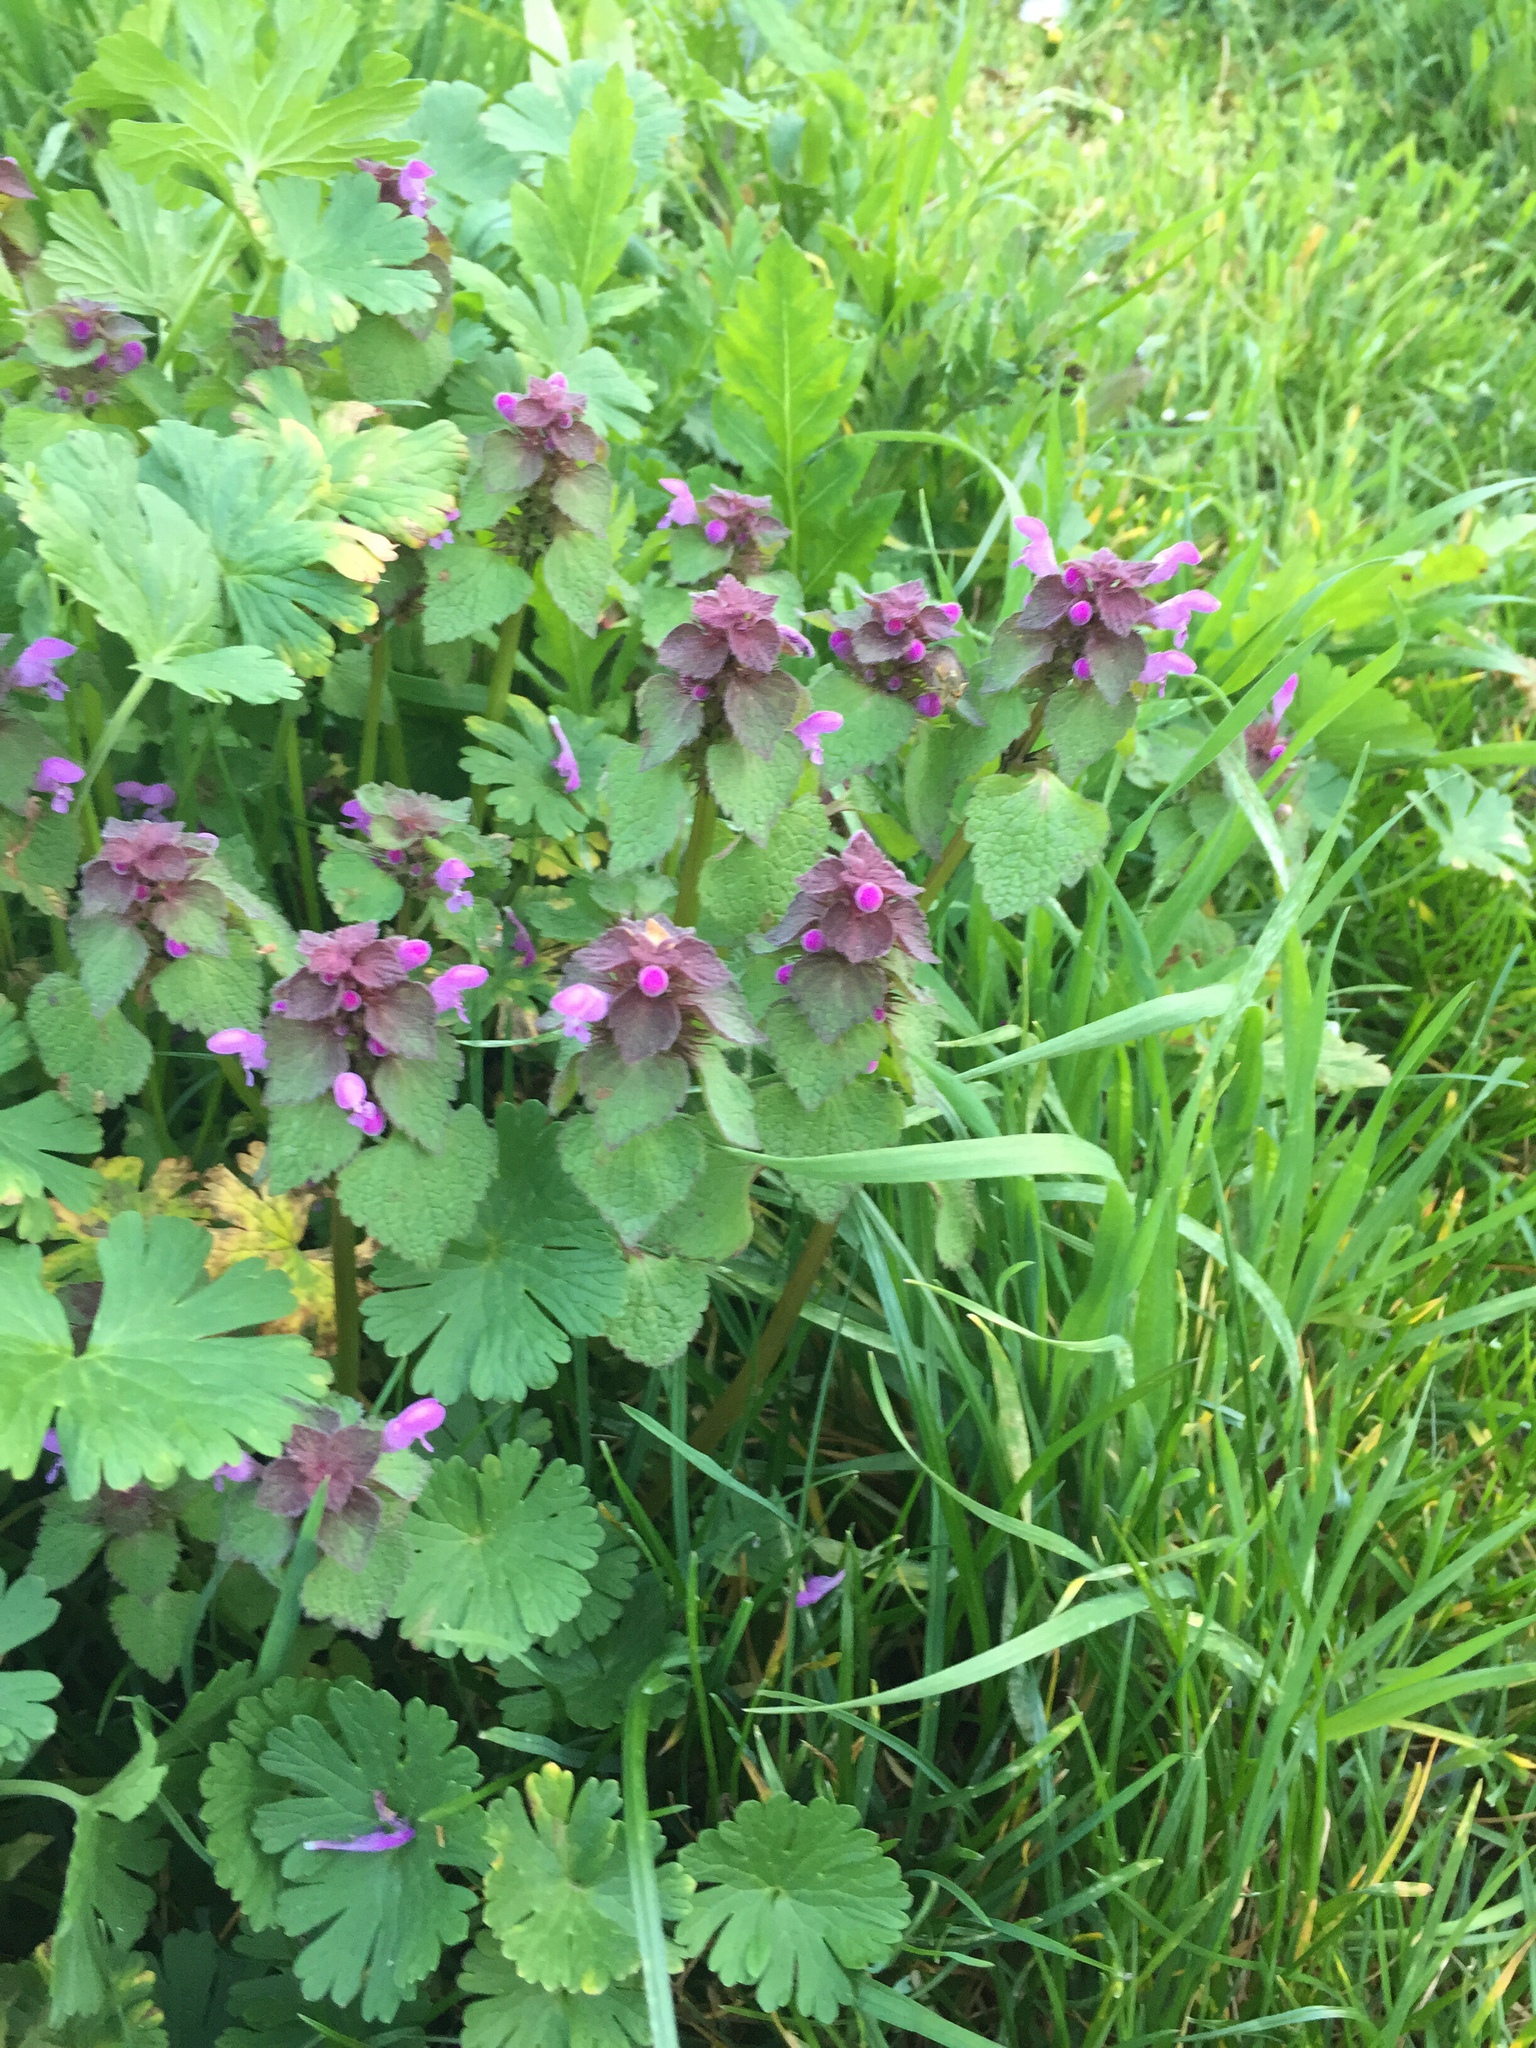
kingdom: Plantae
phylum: Tracheophyta
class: Magnoliopsida
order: Lamiales
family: Lamiaceae
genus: Lamium
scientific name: Lamium purpureum
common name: Red dead-nettle
